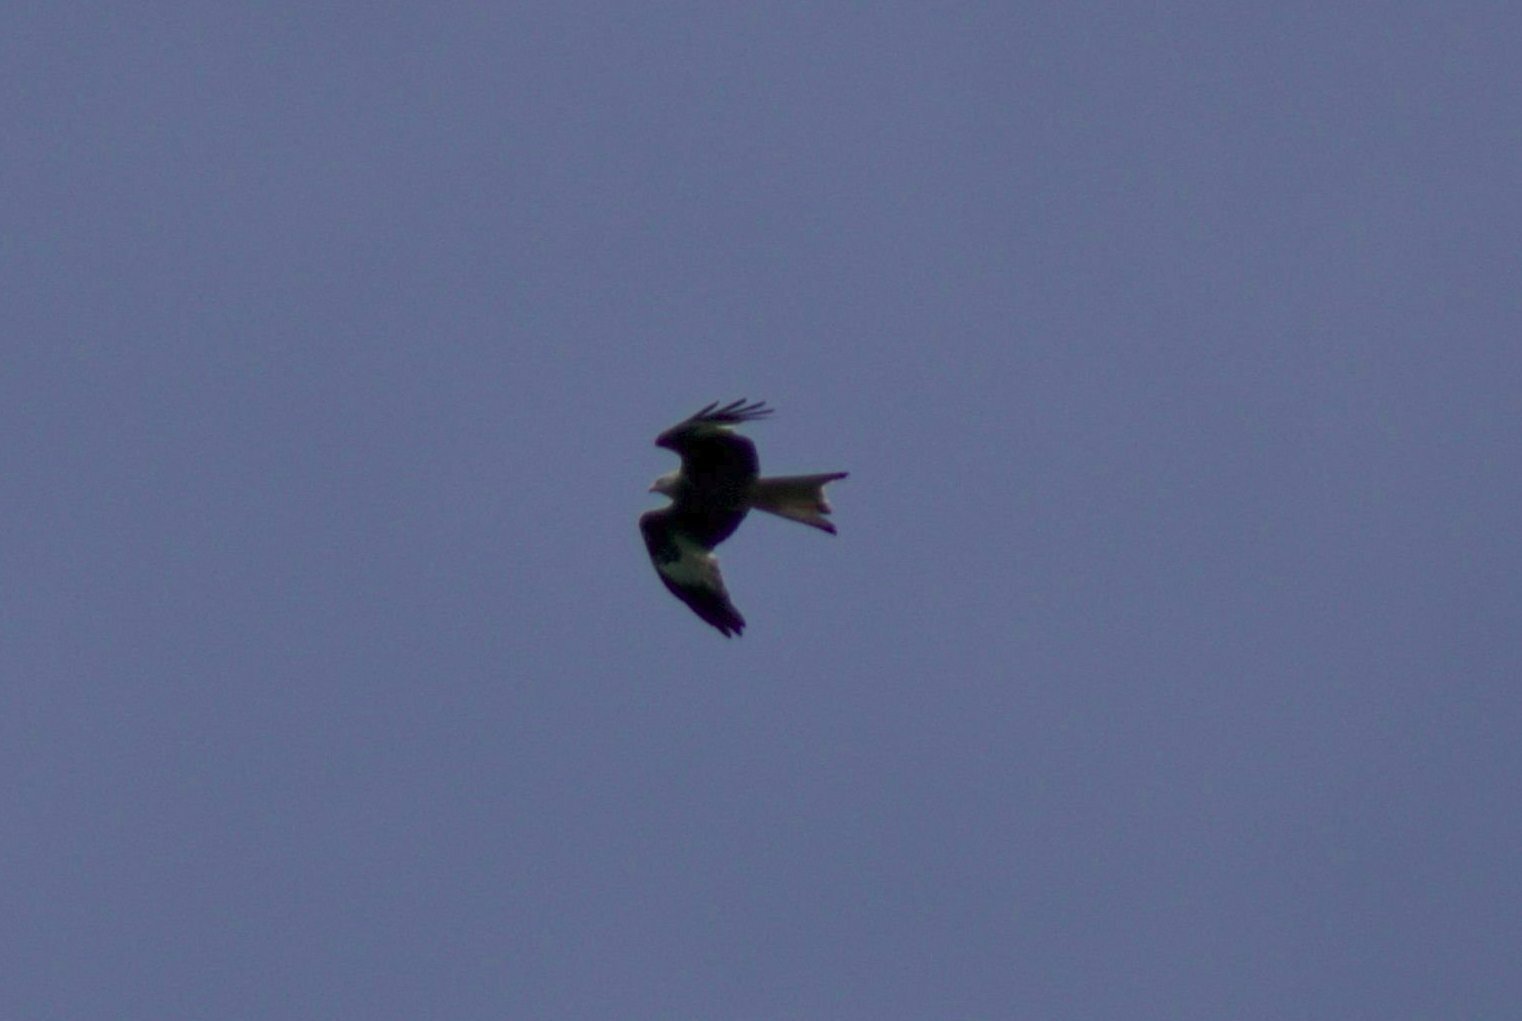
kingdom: Animalia
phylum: Chordata
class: Aves
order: Accipitriformes
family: Accipitridae
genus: Milvus
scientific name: Milvus milvus
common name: Red kite
